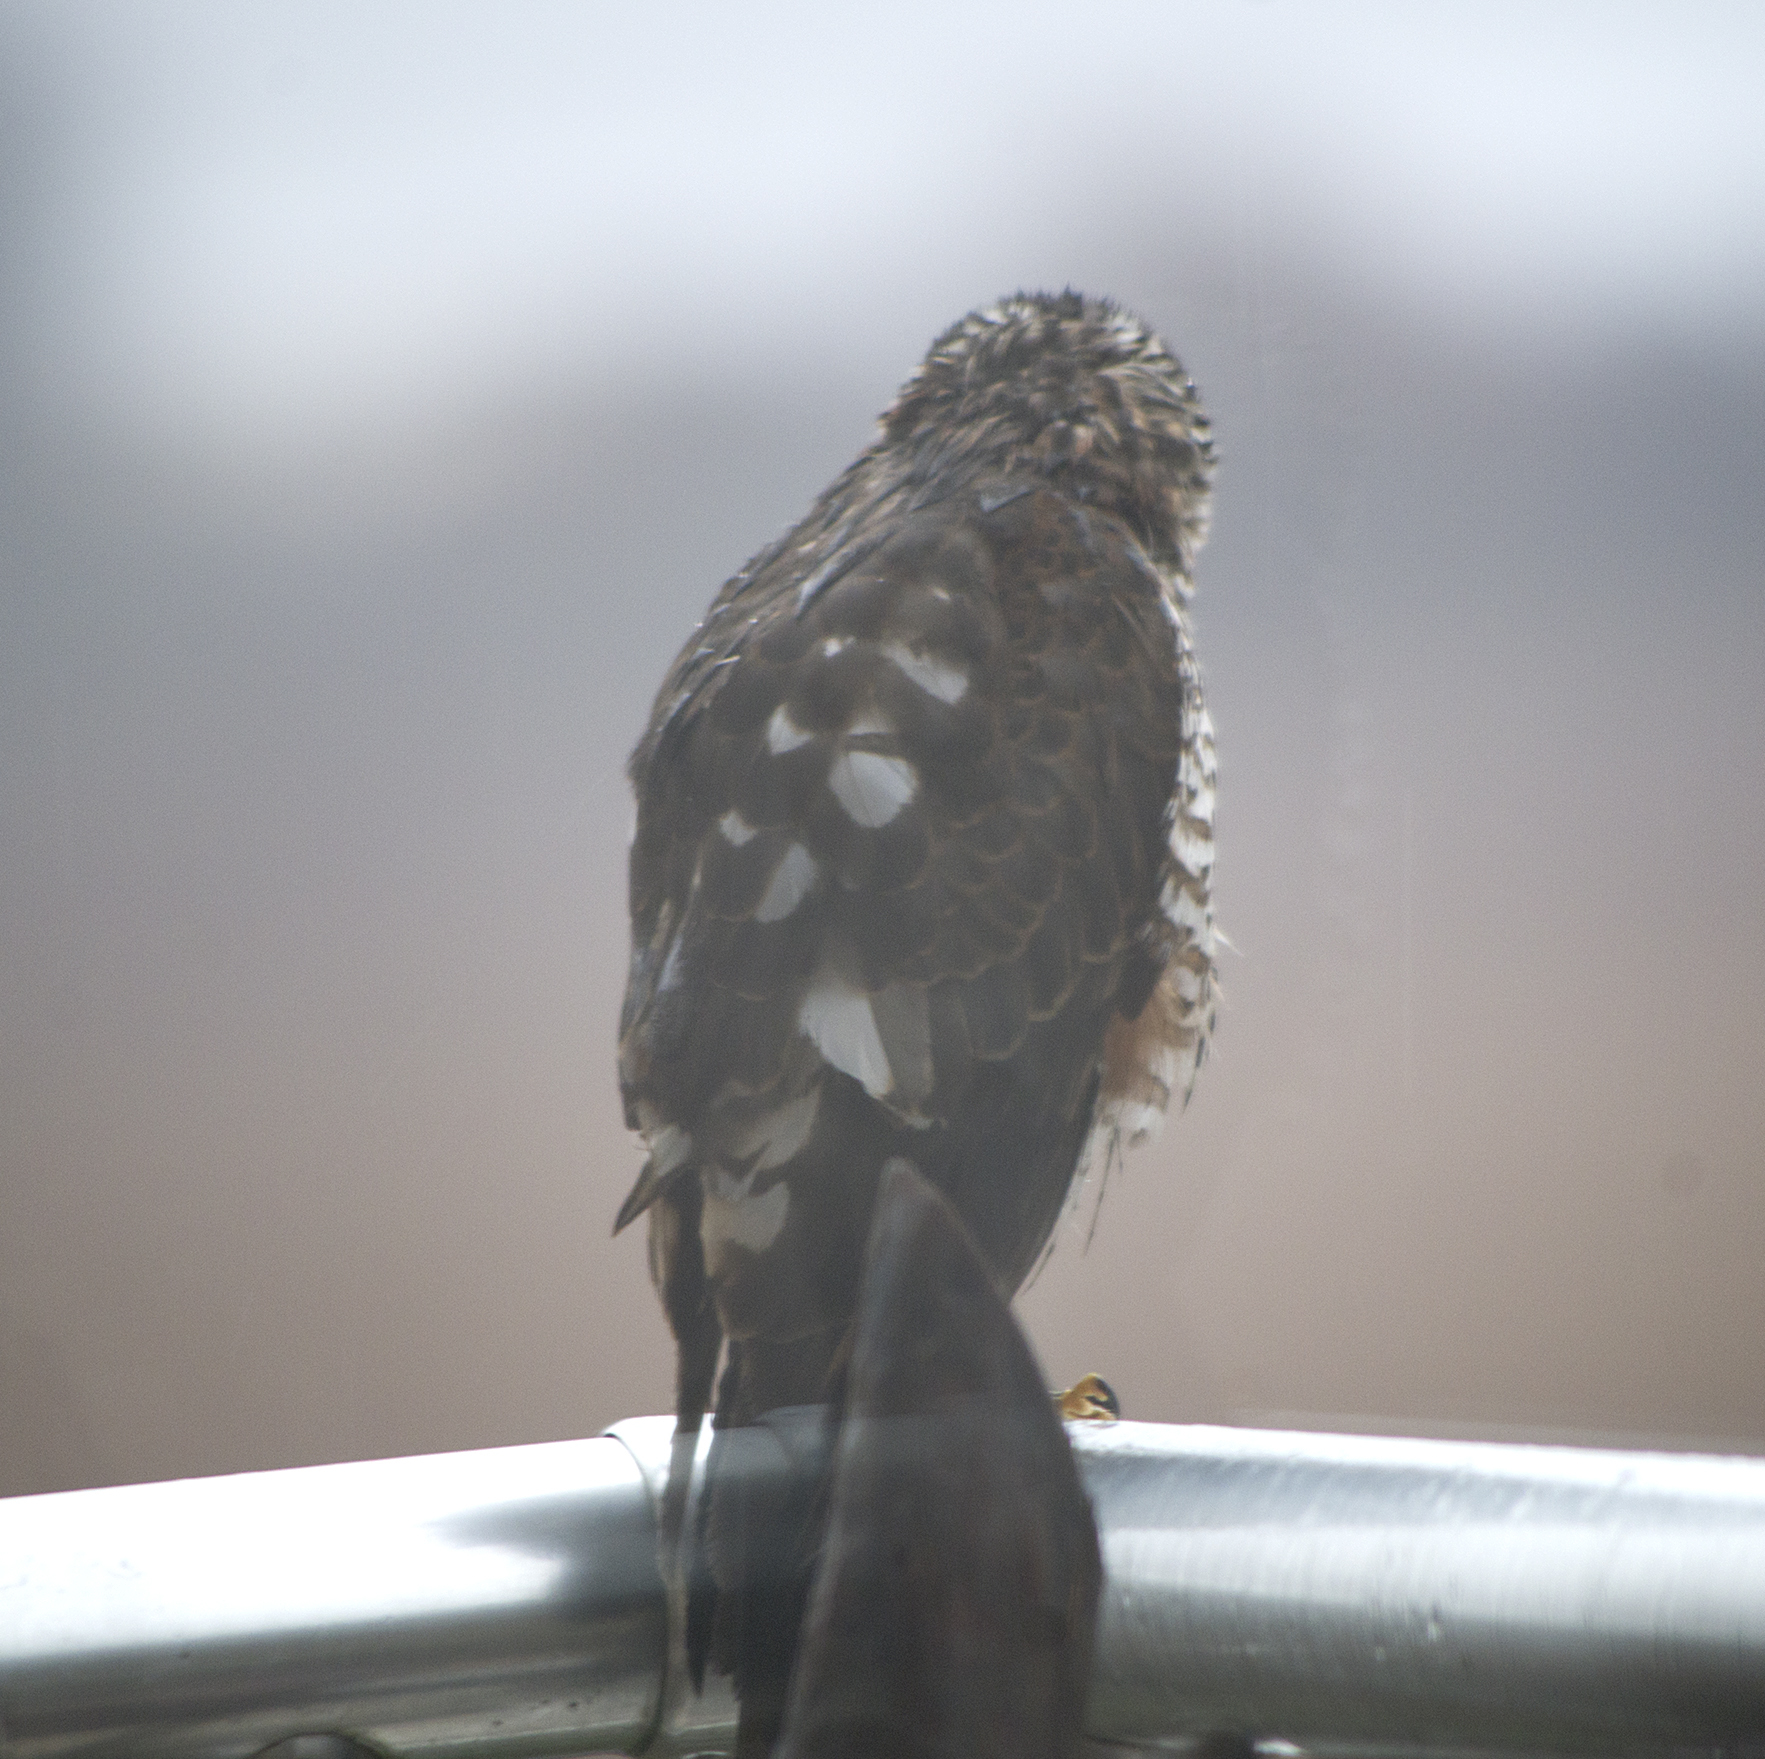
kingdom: Animalia
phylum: Chordata
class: Aves
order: Accipitriformes
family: Accipitridae
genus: Accipiter
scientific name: Accipiter nisus
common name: Eurasian sparrowhawk
